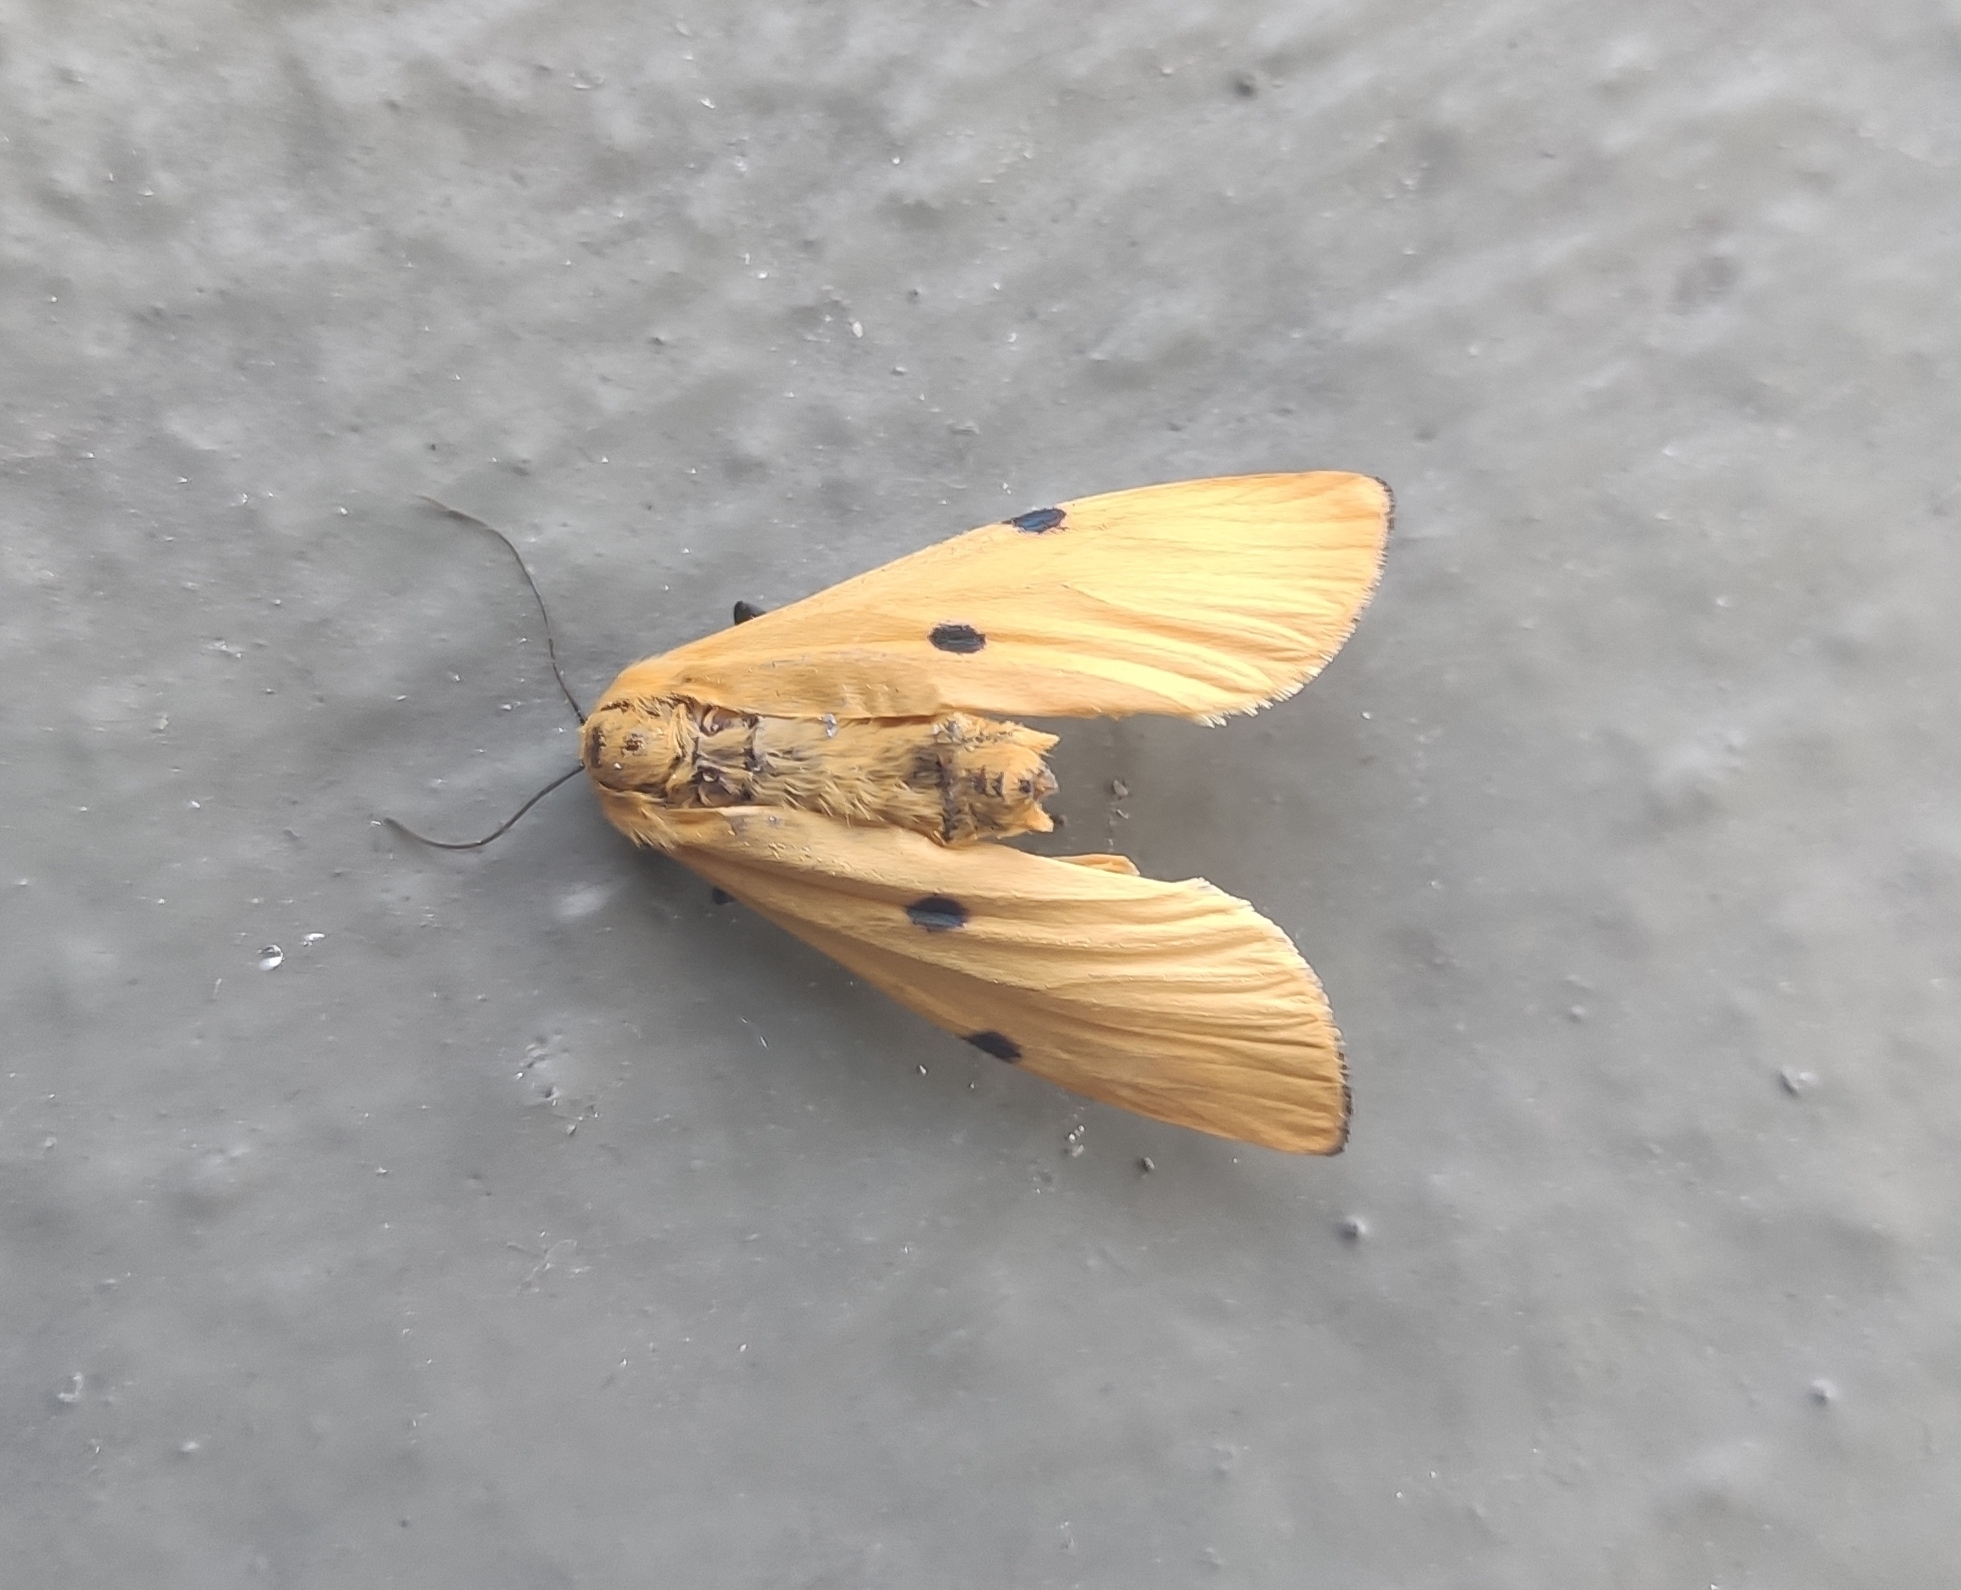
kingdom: Animalia
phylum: Arthropoda
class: Insecta
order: Lepidoptera
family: Erebidae
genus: Lithosia
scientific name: Lithosia quadra
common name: Four-spotted footman
